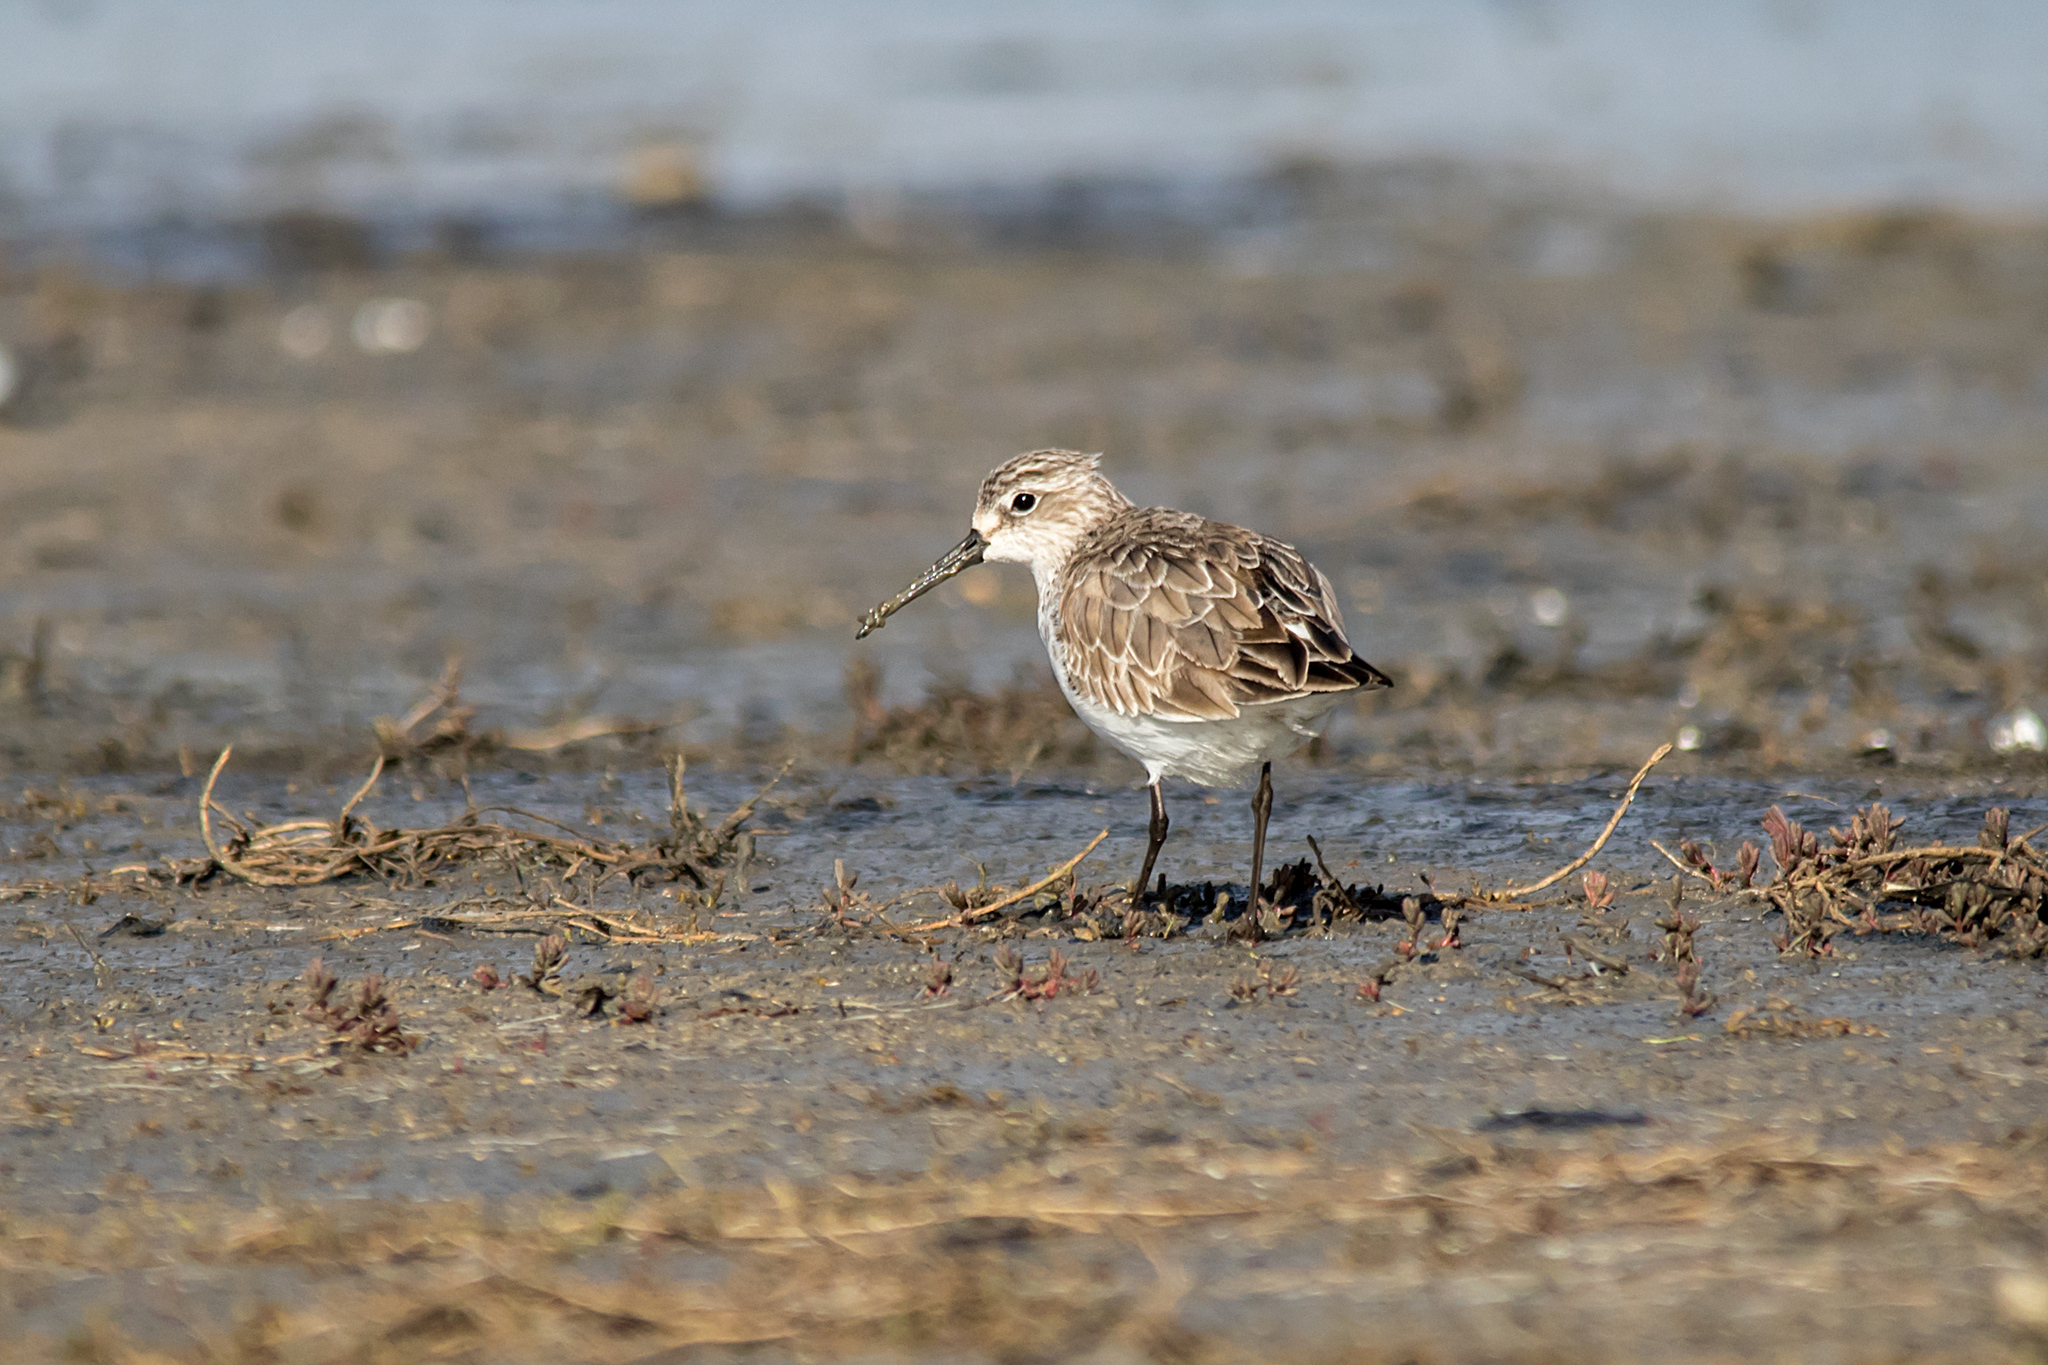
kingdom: Animalia
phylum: Chordata
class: Aves
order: Charadriiformes
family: Scolopacidae
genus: Calidris
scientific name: Calidris ferruginea
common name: Curlew sandpiper
